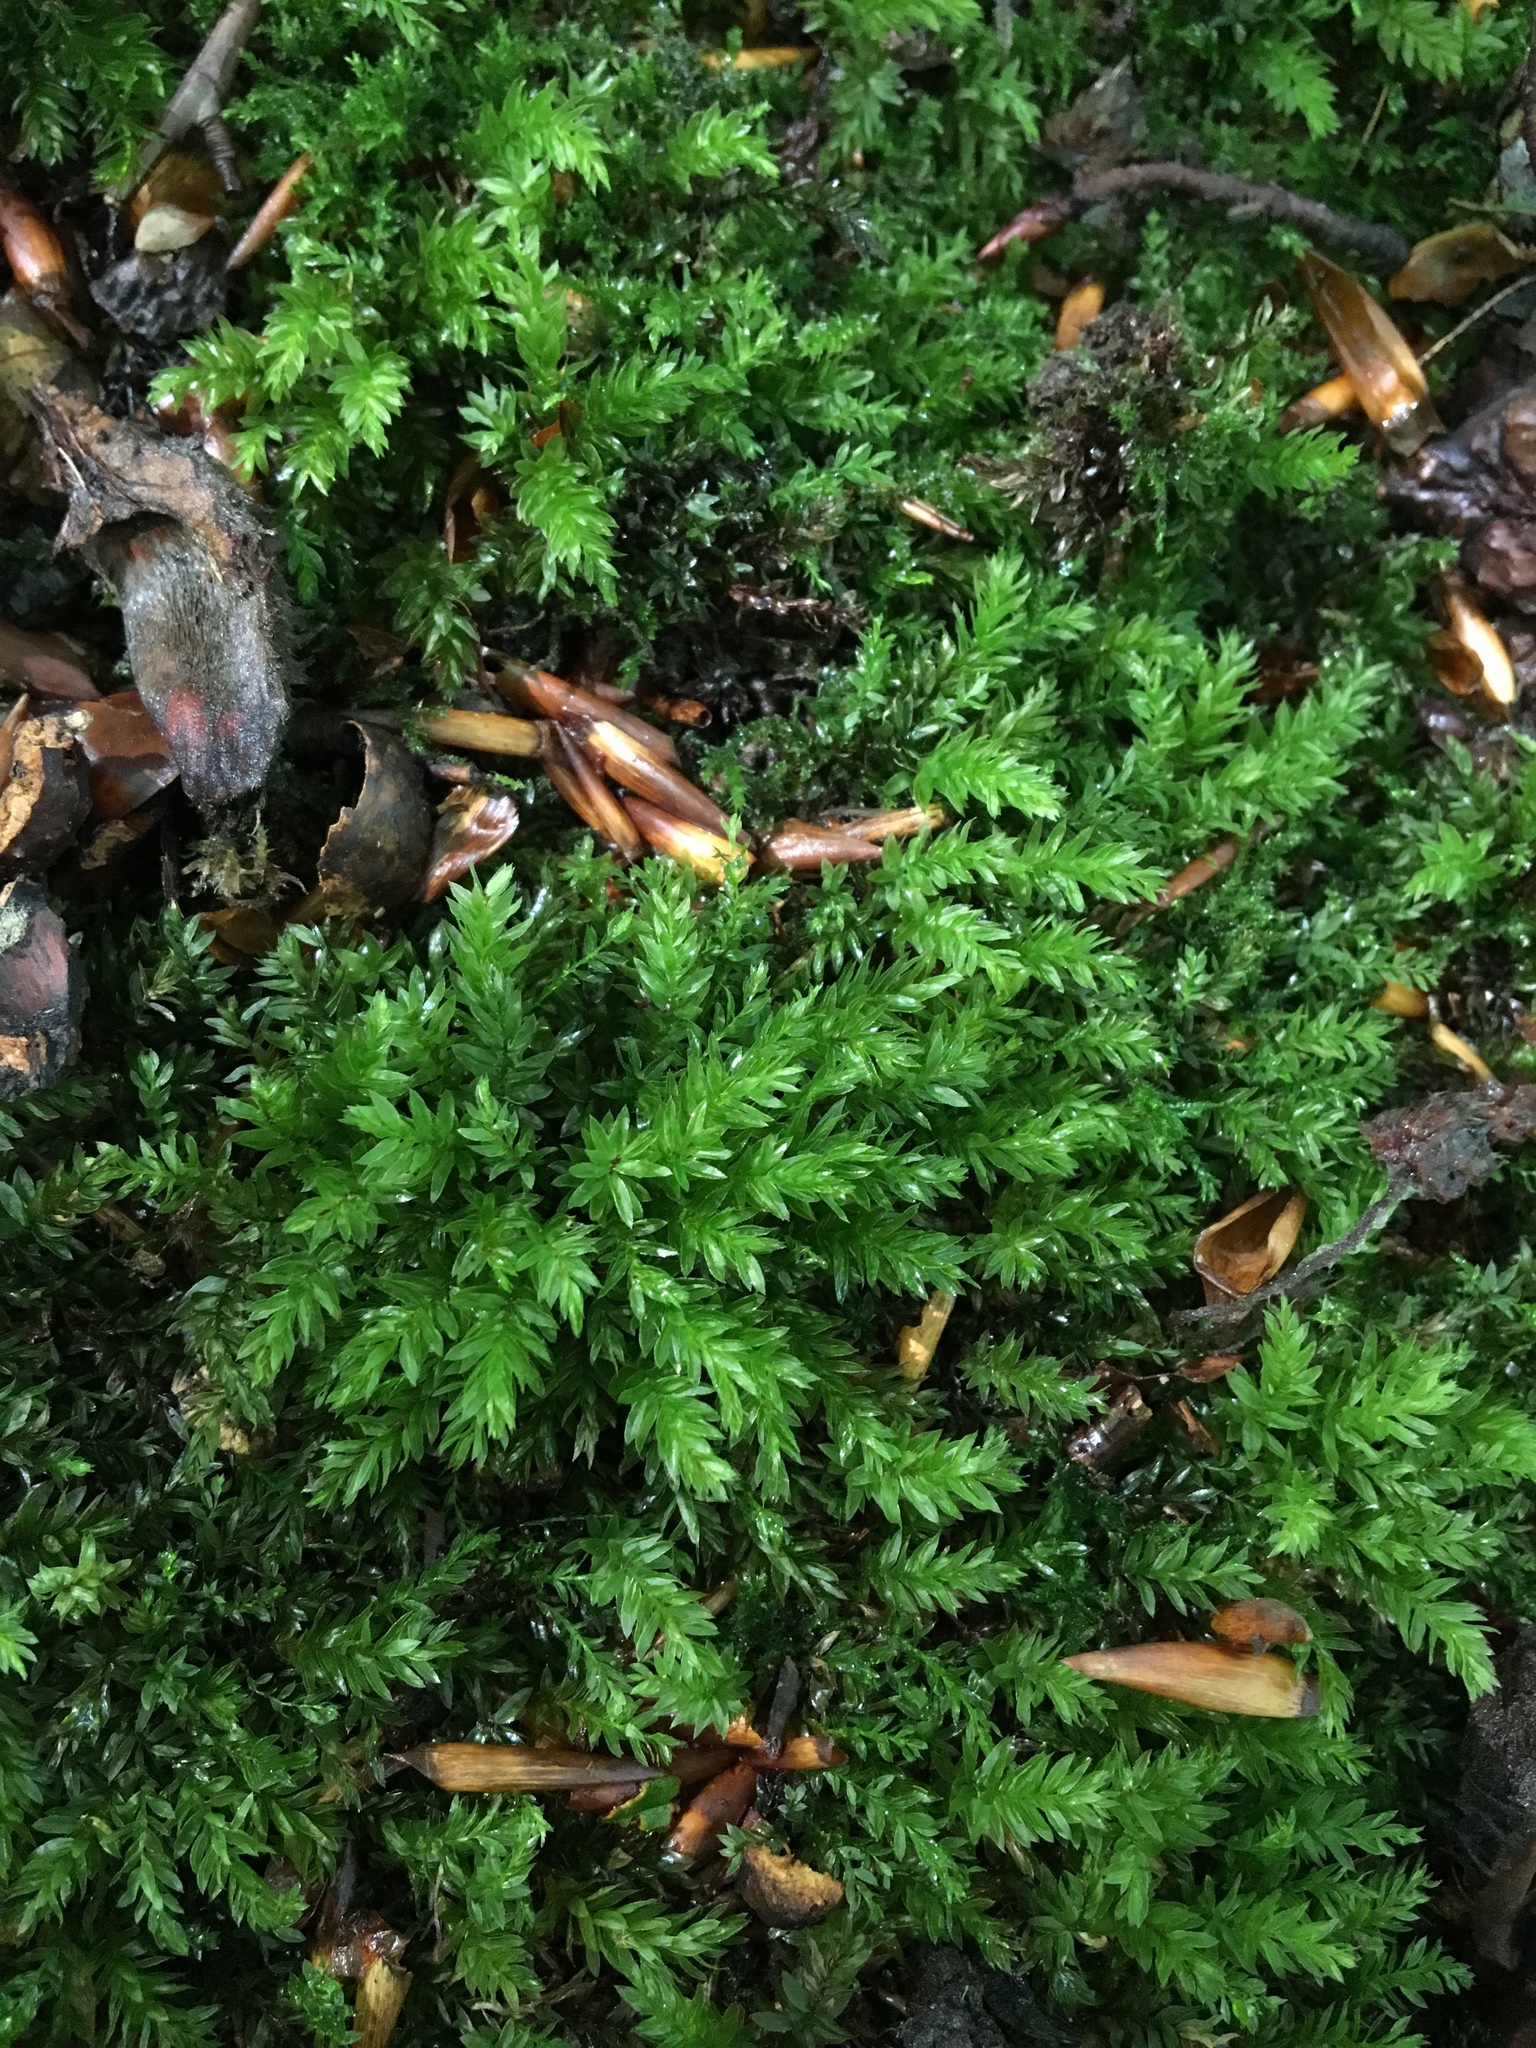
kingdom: Plantae
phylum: Bryophyta
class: Bryopsida
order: Bryales
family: Mniaceae
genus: Mnium
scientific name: Mnium hornum
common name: Swan's-neck leafy moss
